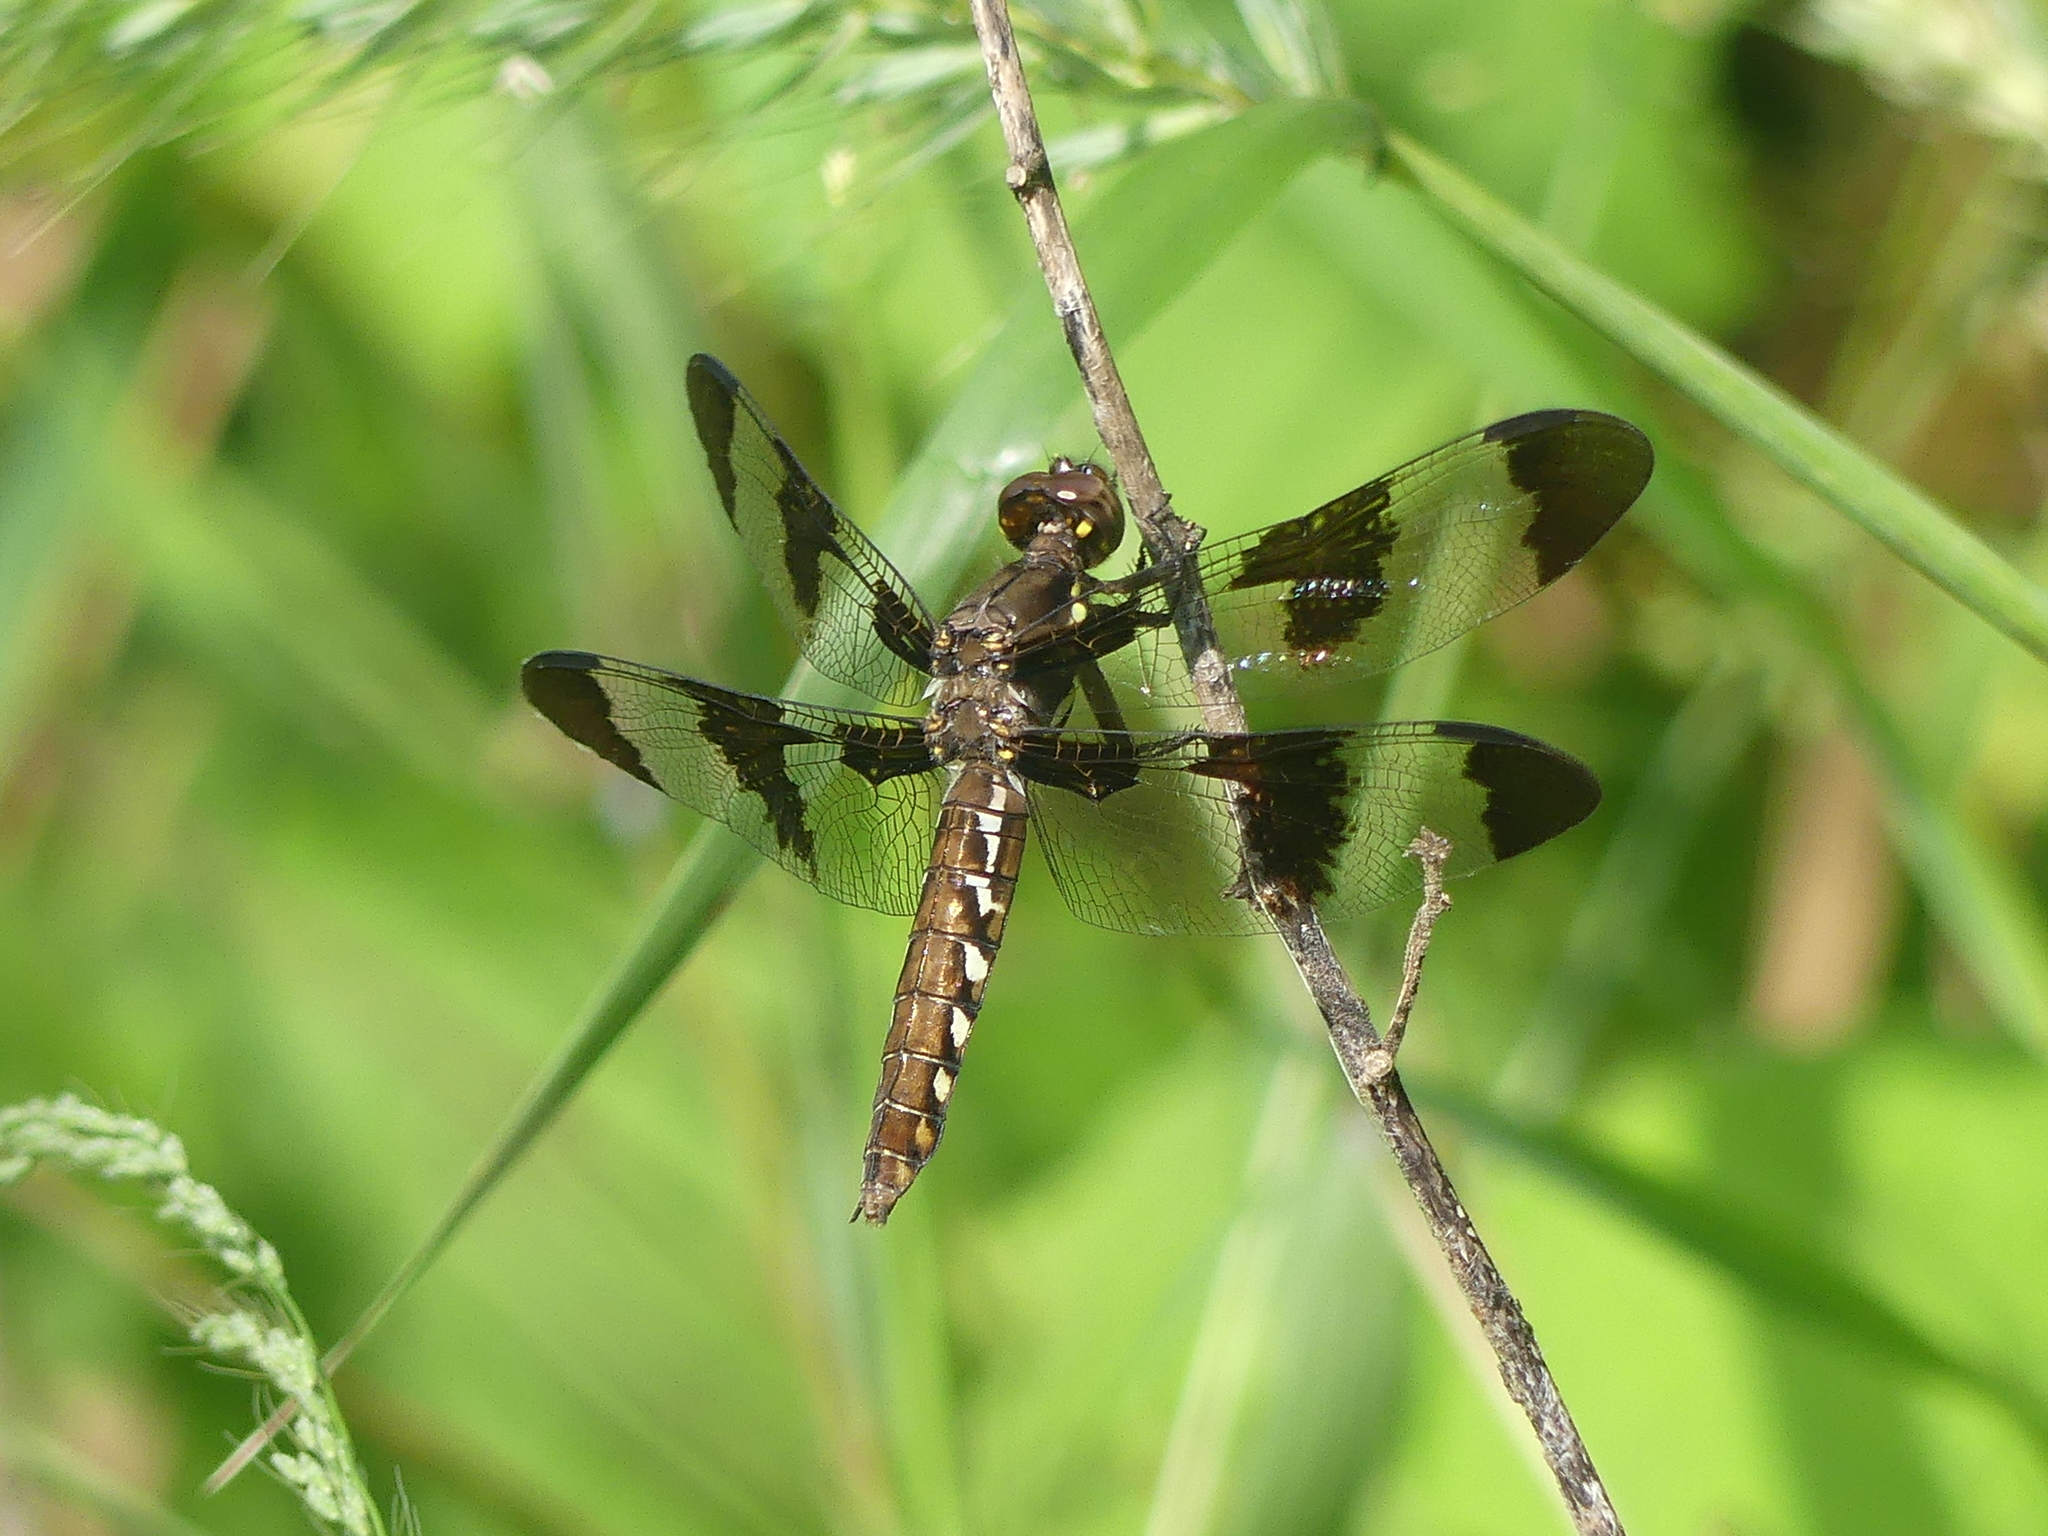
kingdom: Animalia
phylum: Arthropoda
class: Insecta
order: Odonata
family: Libellulidae
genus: Plathemis
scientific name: Plathemis lydia
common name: Common whitetail
